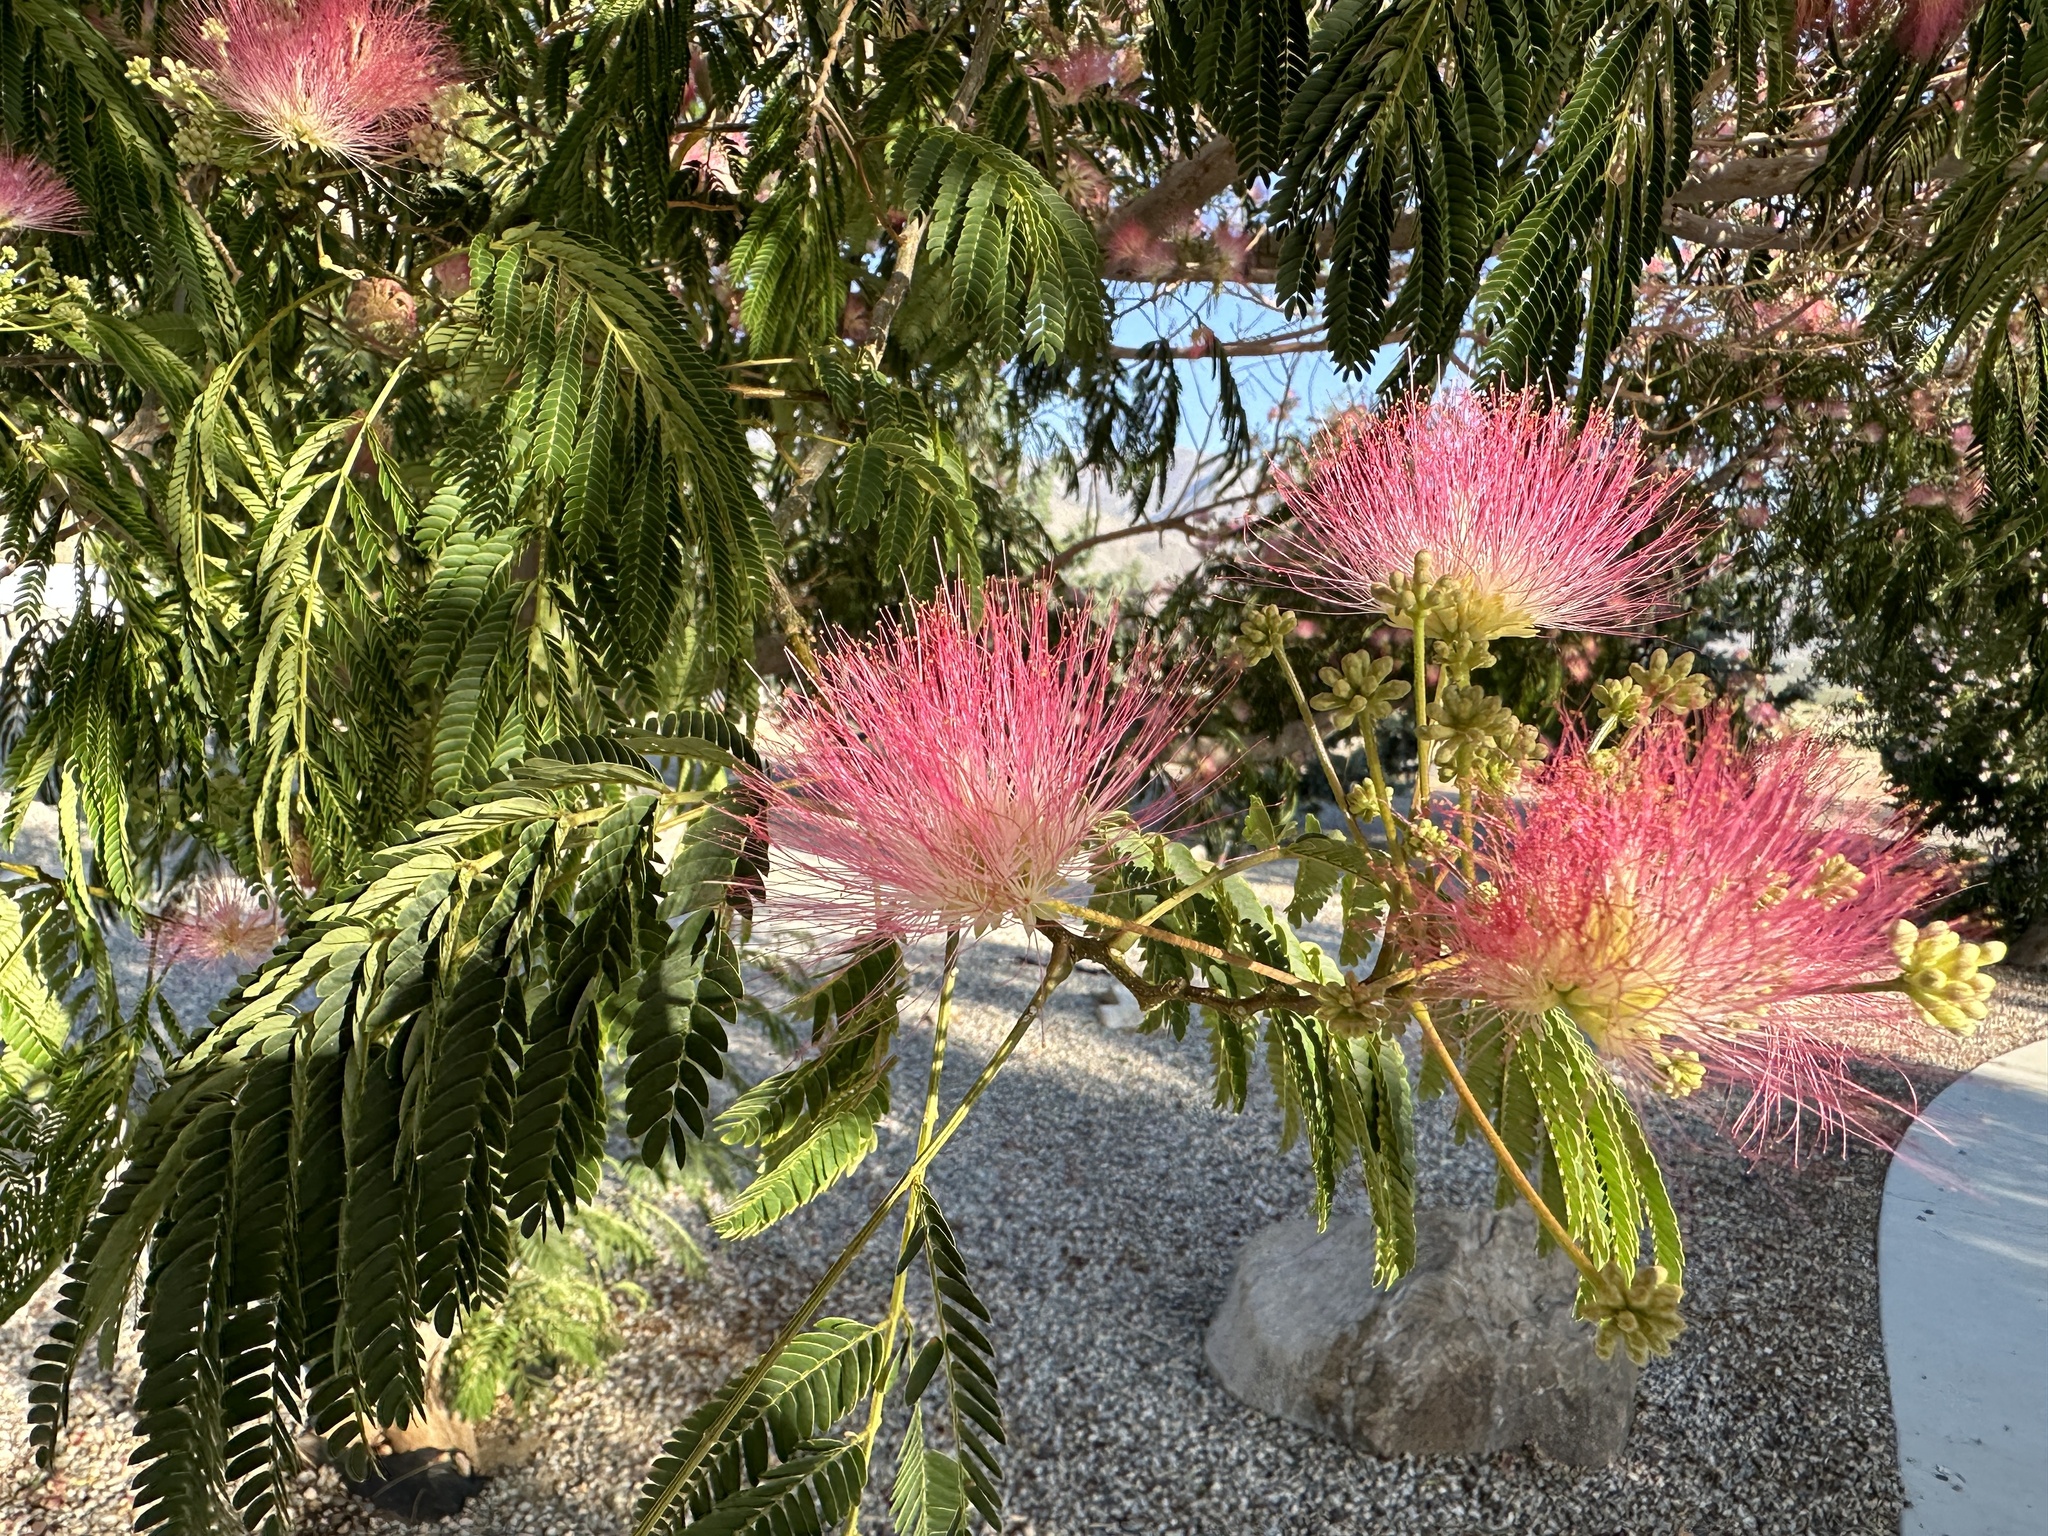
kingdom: Plantae
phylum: Tracheophyta
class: Magnoliopsida
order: Fabales
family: Fabaceae
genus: Albizia
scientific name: Albizia julibrissin
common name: Silktree
